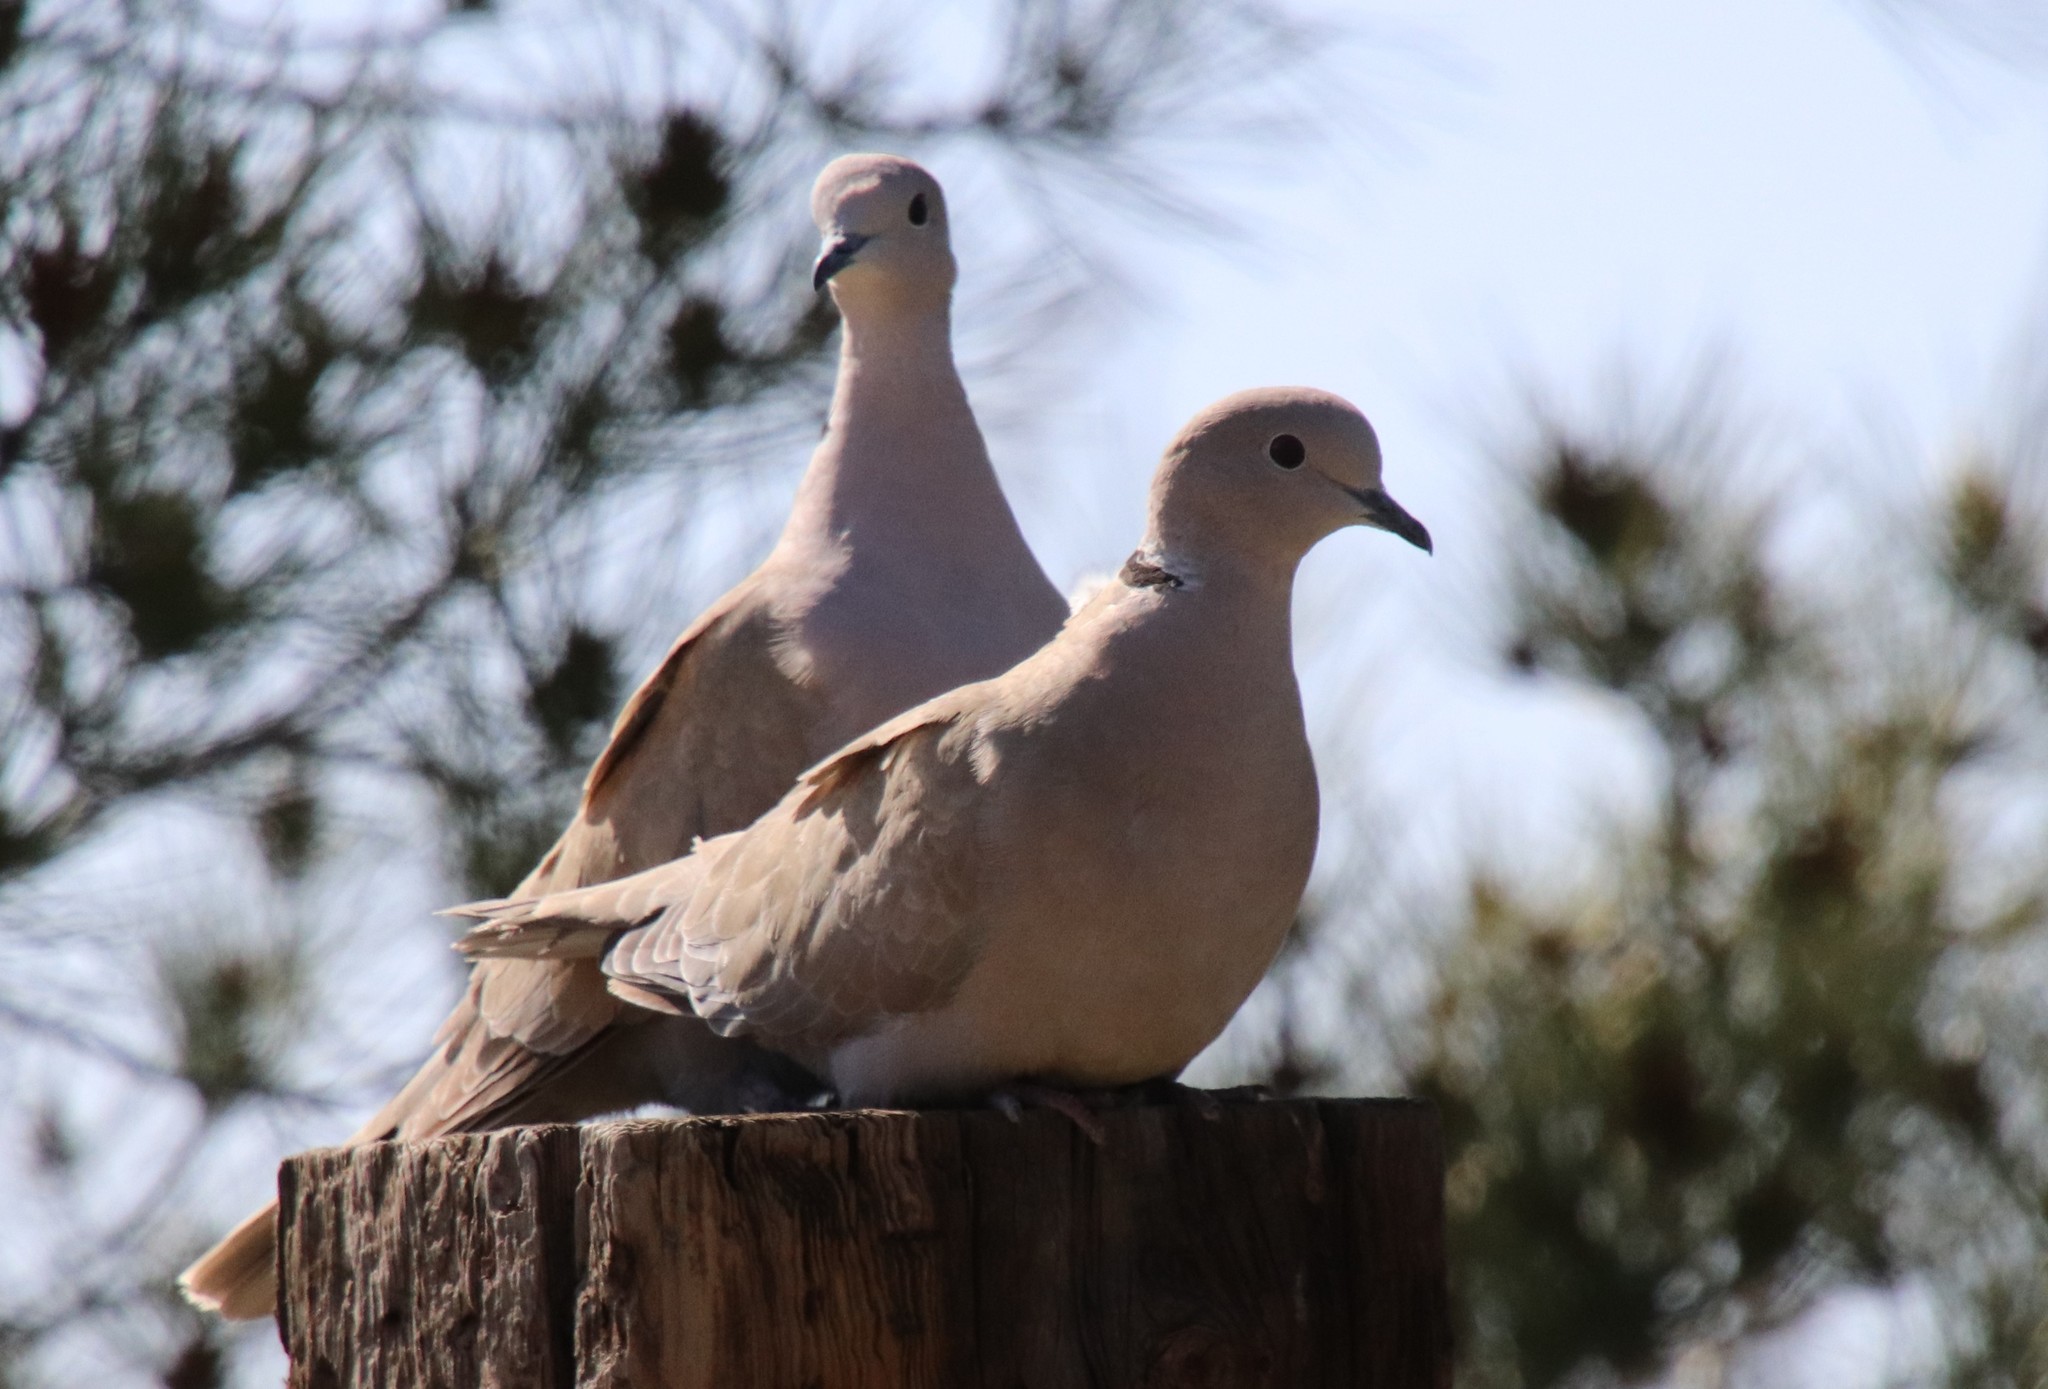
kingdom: Animalia
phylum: Chordata
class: Aves
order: Columbiformes
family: Columbidae
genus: Streptopelia
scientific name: Streptopelia decaocto
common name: Eurasian collared dove
